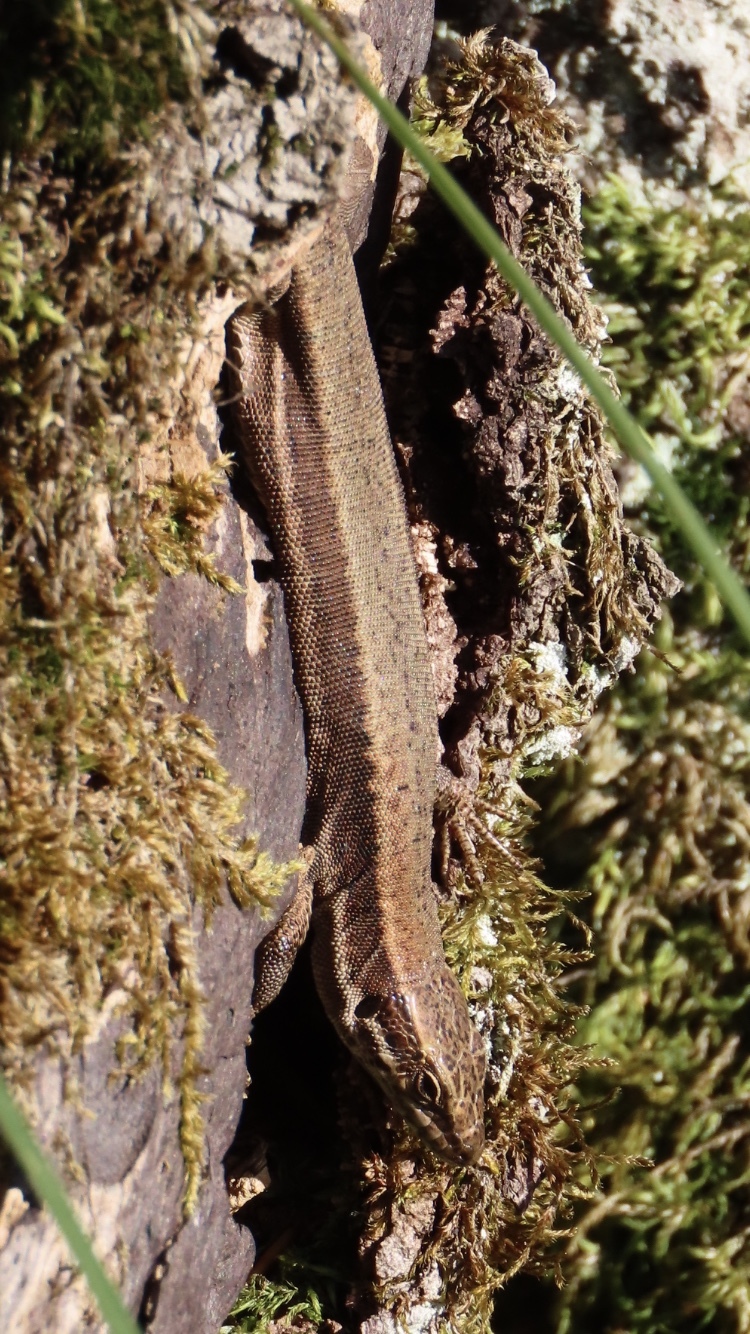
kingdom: Animalia
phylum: Chordata
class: Squamata
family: Lacertidae
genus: Podarcis
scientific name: Podarcis muralis
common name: Common wall lizard
